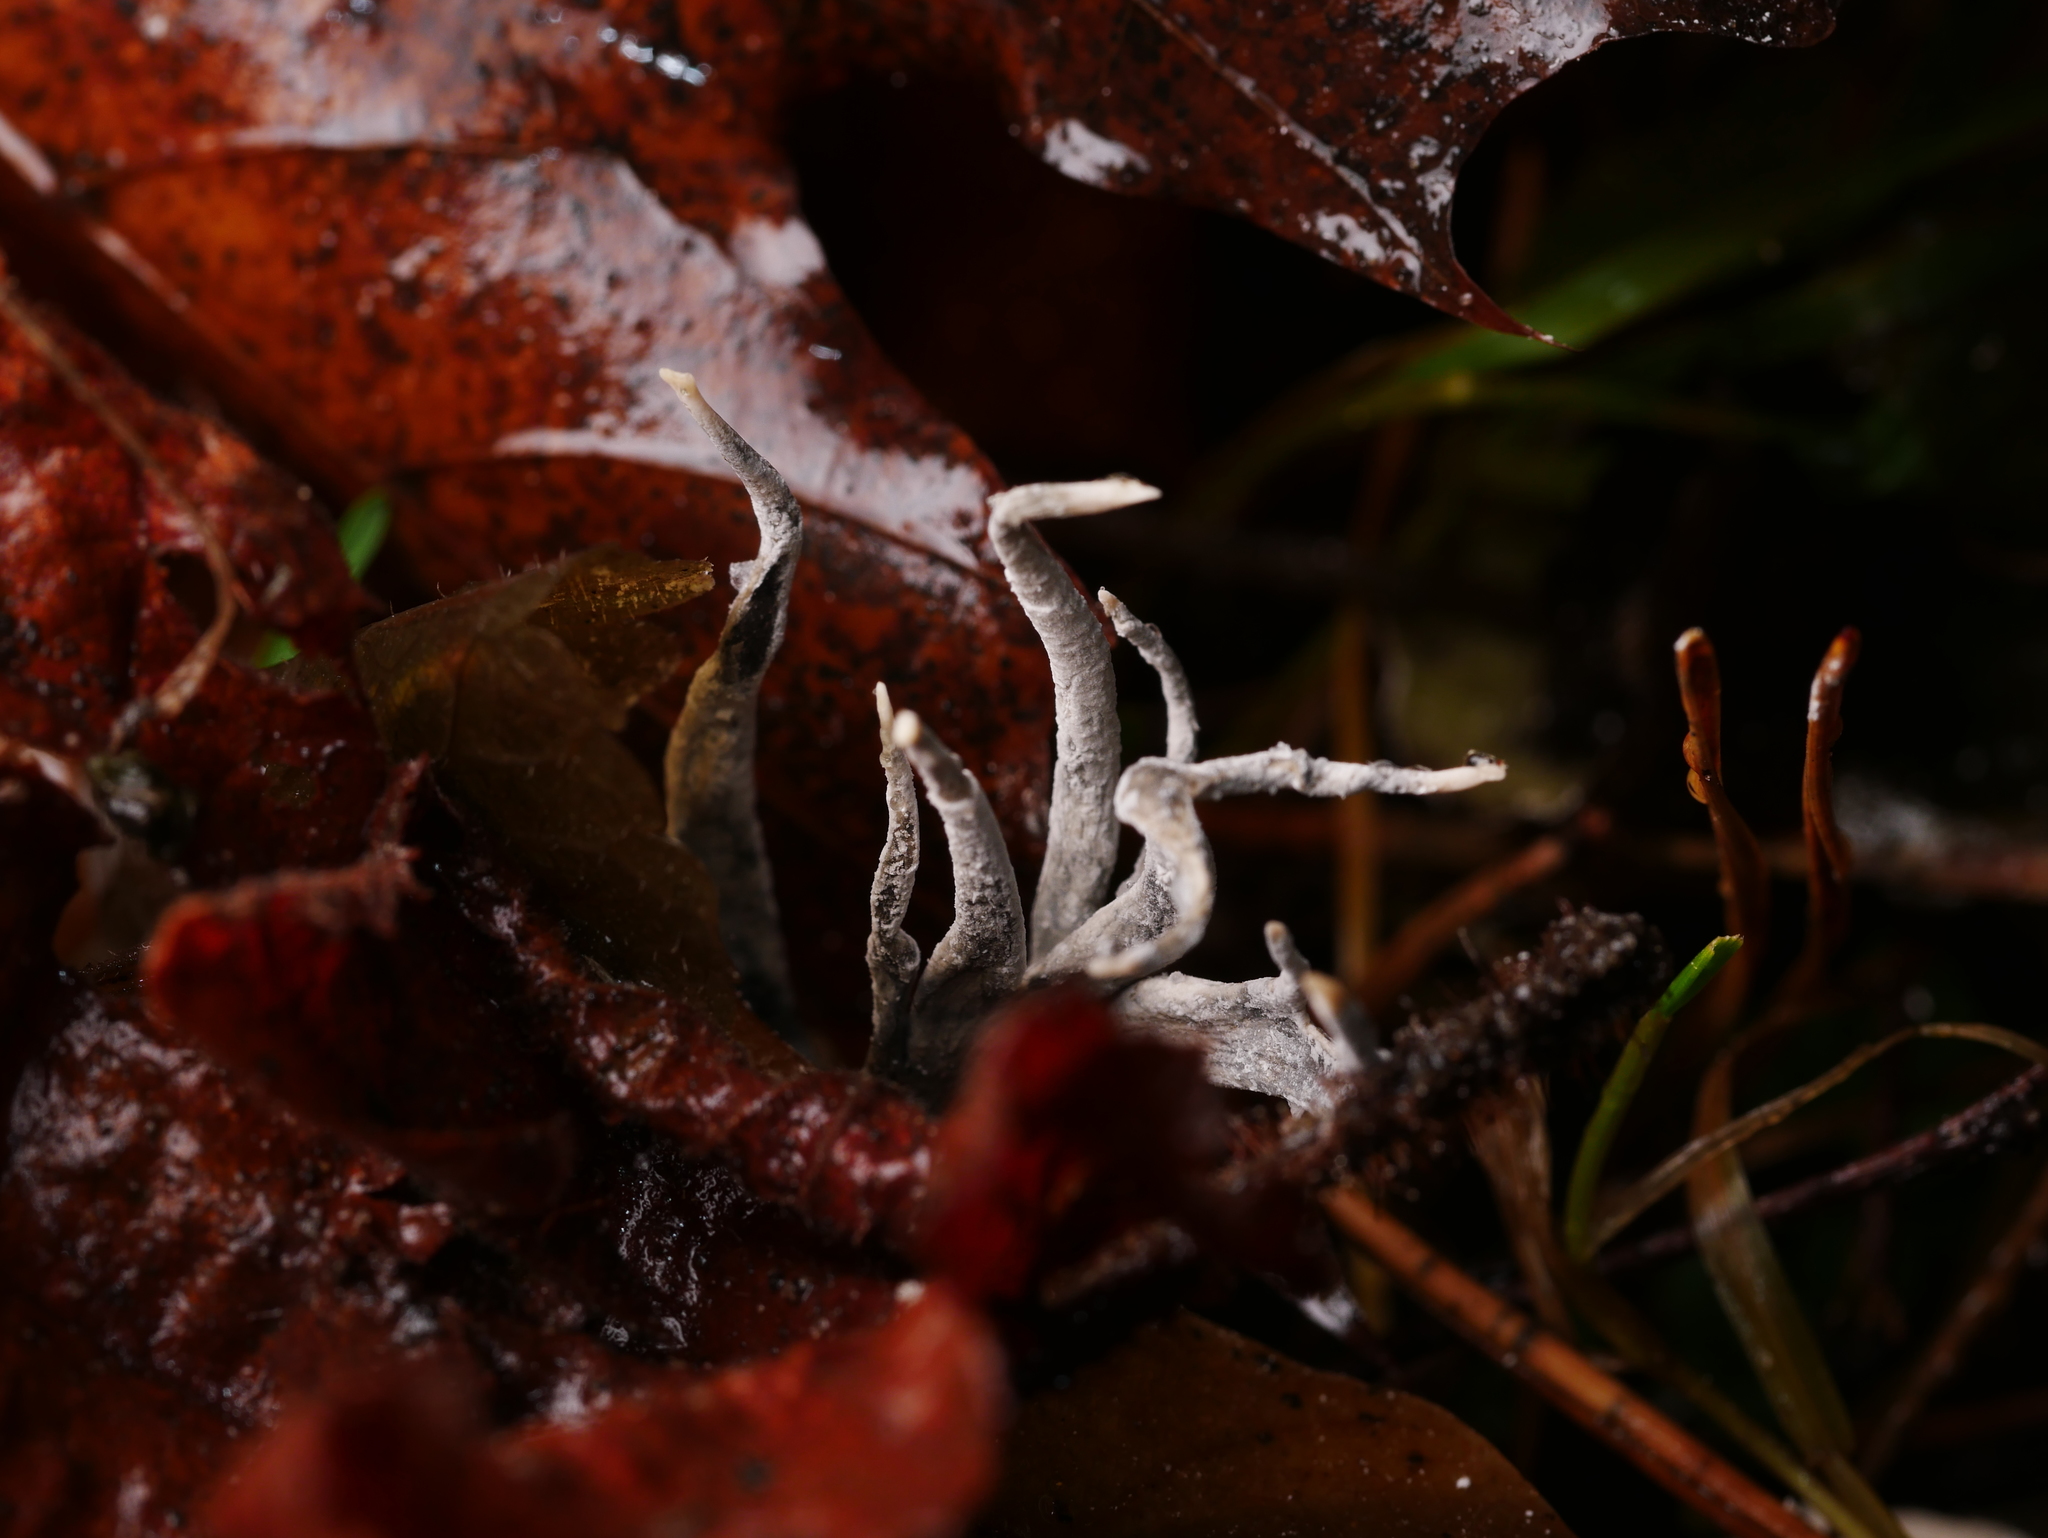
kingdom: Fungi
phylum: Ascomycota
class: Sordariomycetes
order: Xylariales
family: Xylariaceae
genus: Xylaria
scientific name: Xylaria hypoxylon
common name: Candle-snuff fungus
